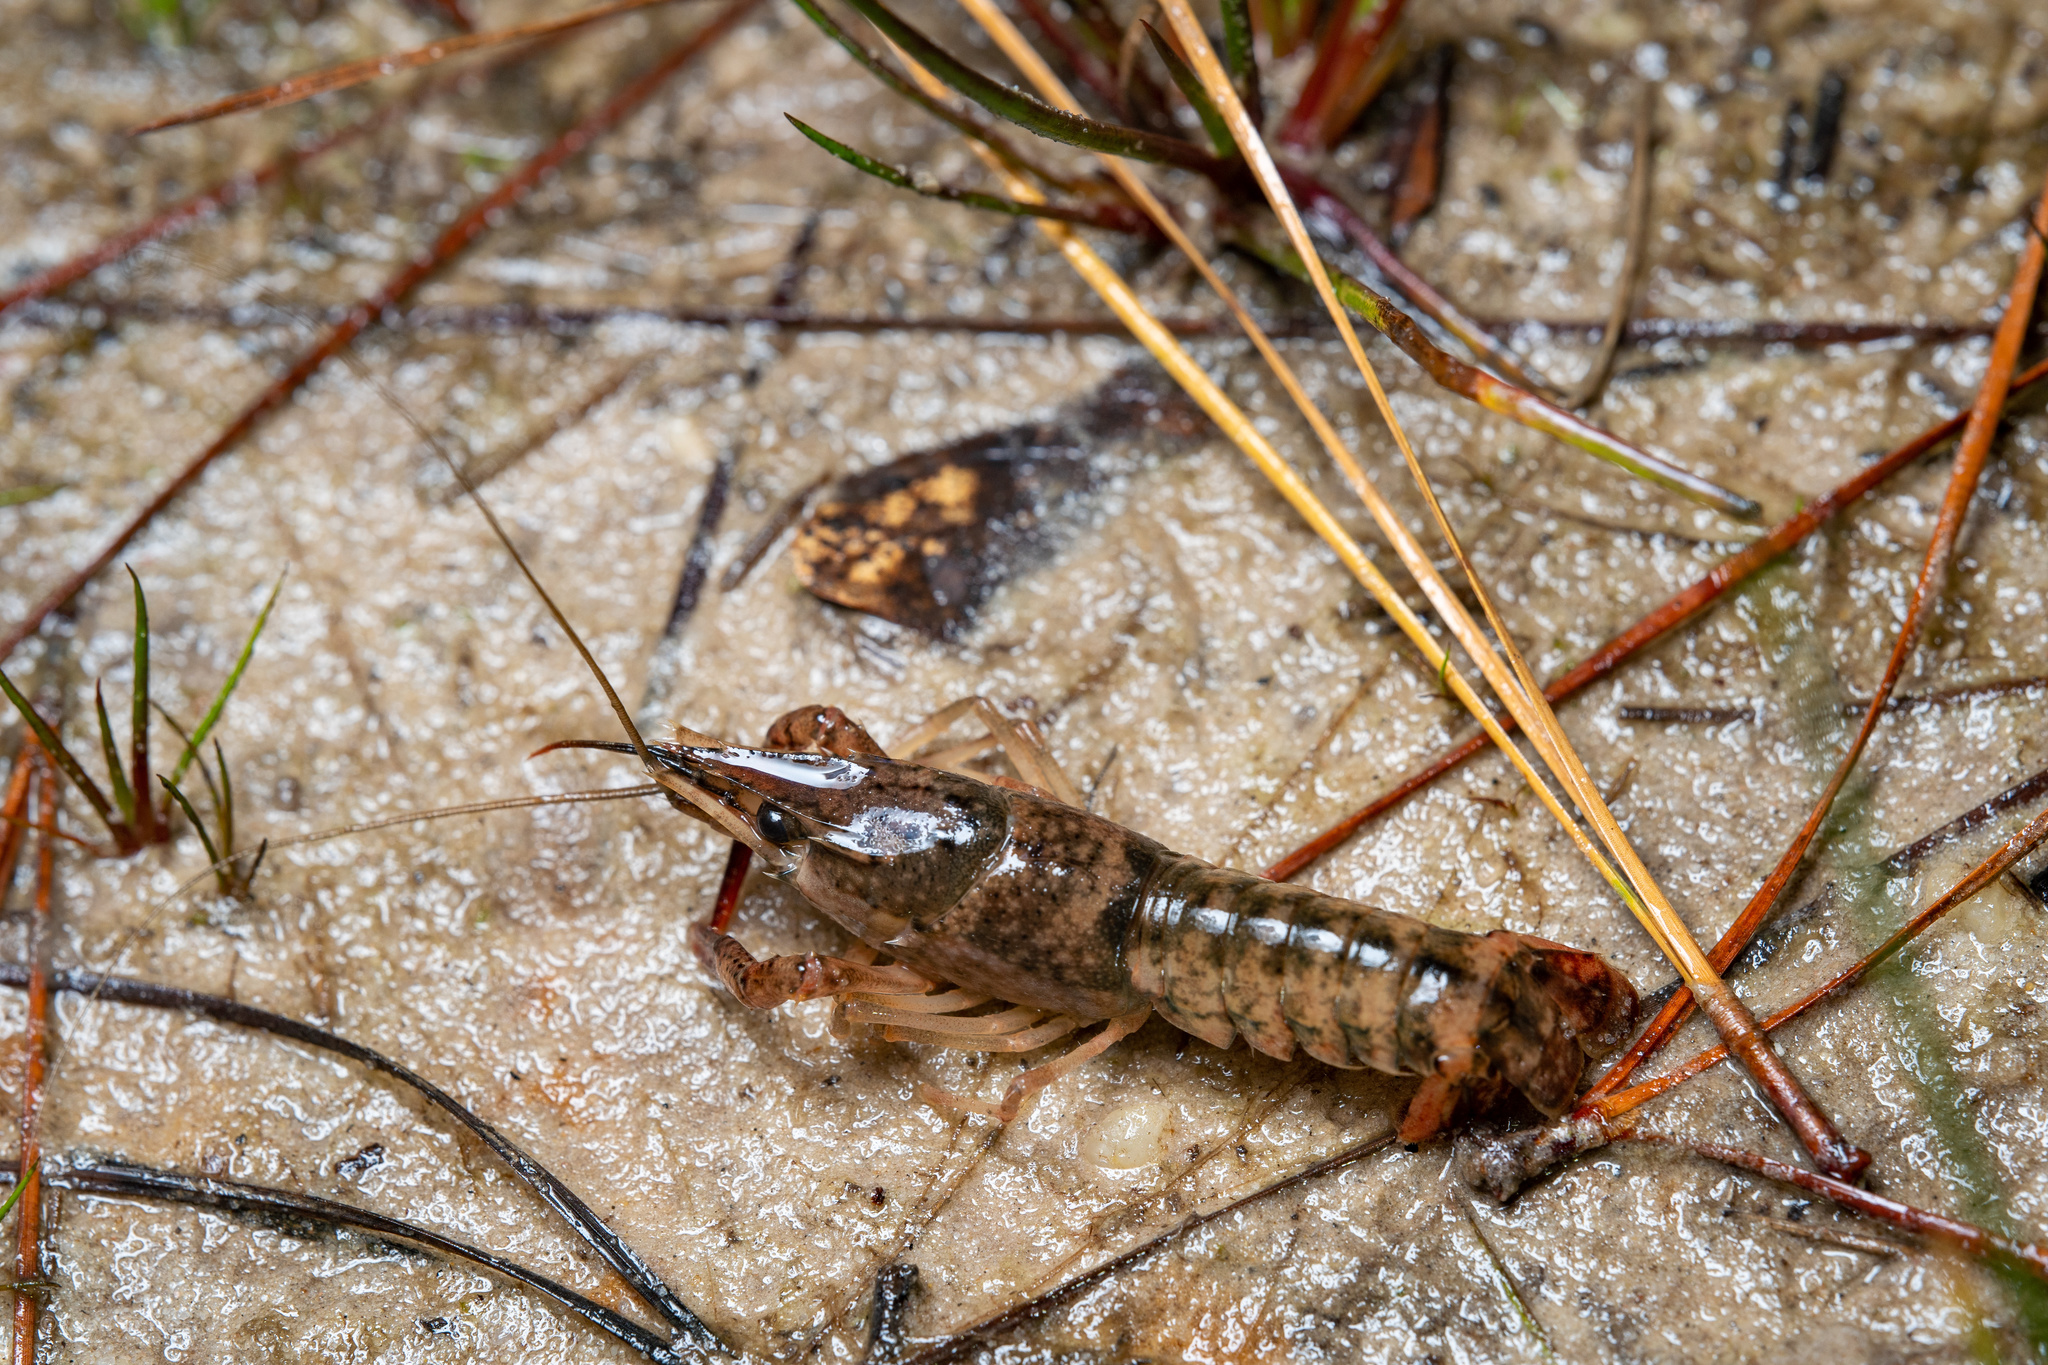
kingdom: Animalia
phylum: Arthropoda
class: Malacostraca
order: Decapoda
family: Cambaridae
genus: Procambarus
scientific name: Procambarus bivittatus
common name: Ribbon crayfish
